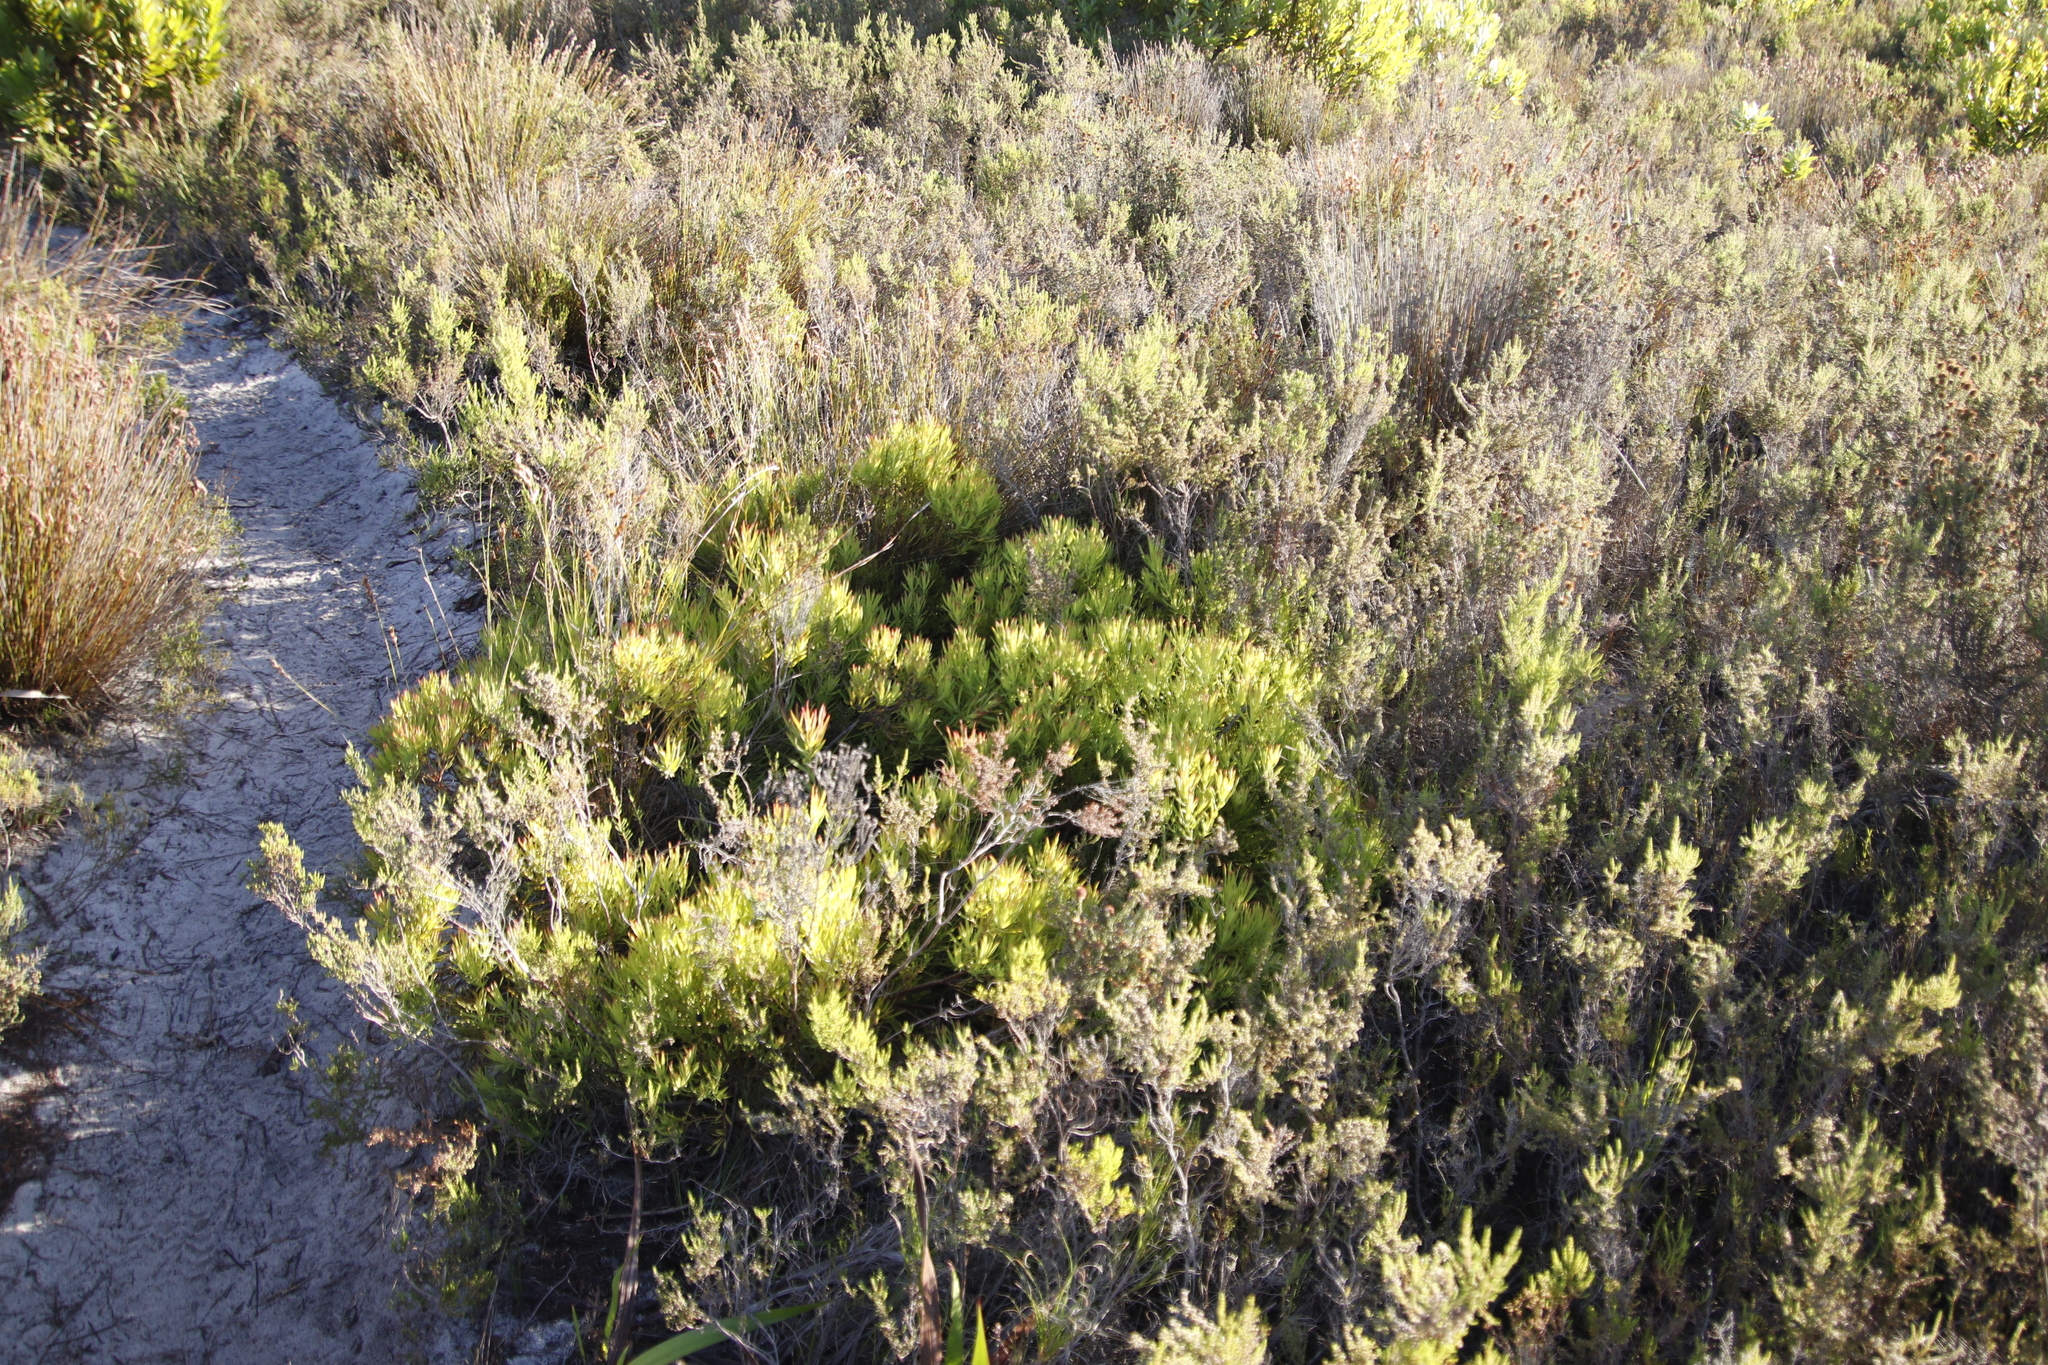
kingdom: Plantae
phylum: Tracheophyta
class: Magnoliopsida
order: Proteales
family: Proteaceae
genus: Leucadendron
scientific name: Leucadendron salignum
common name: Common sunshine conebush
